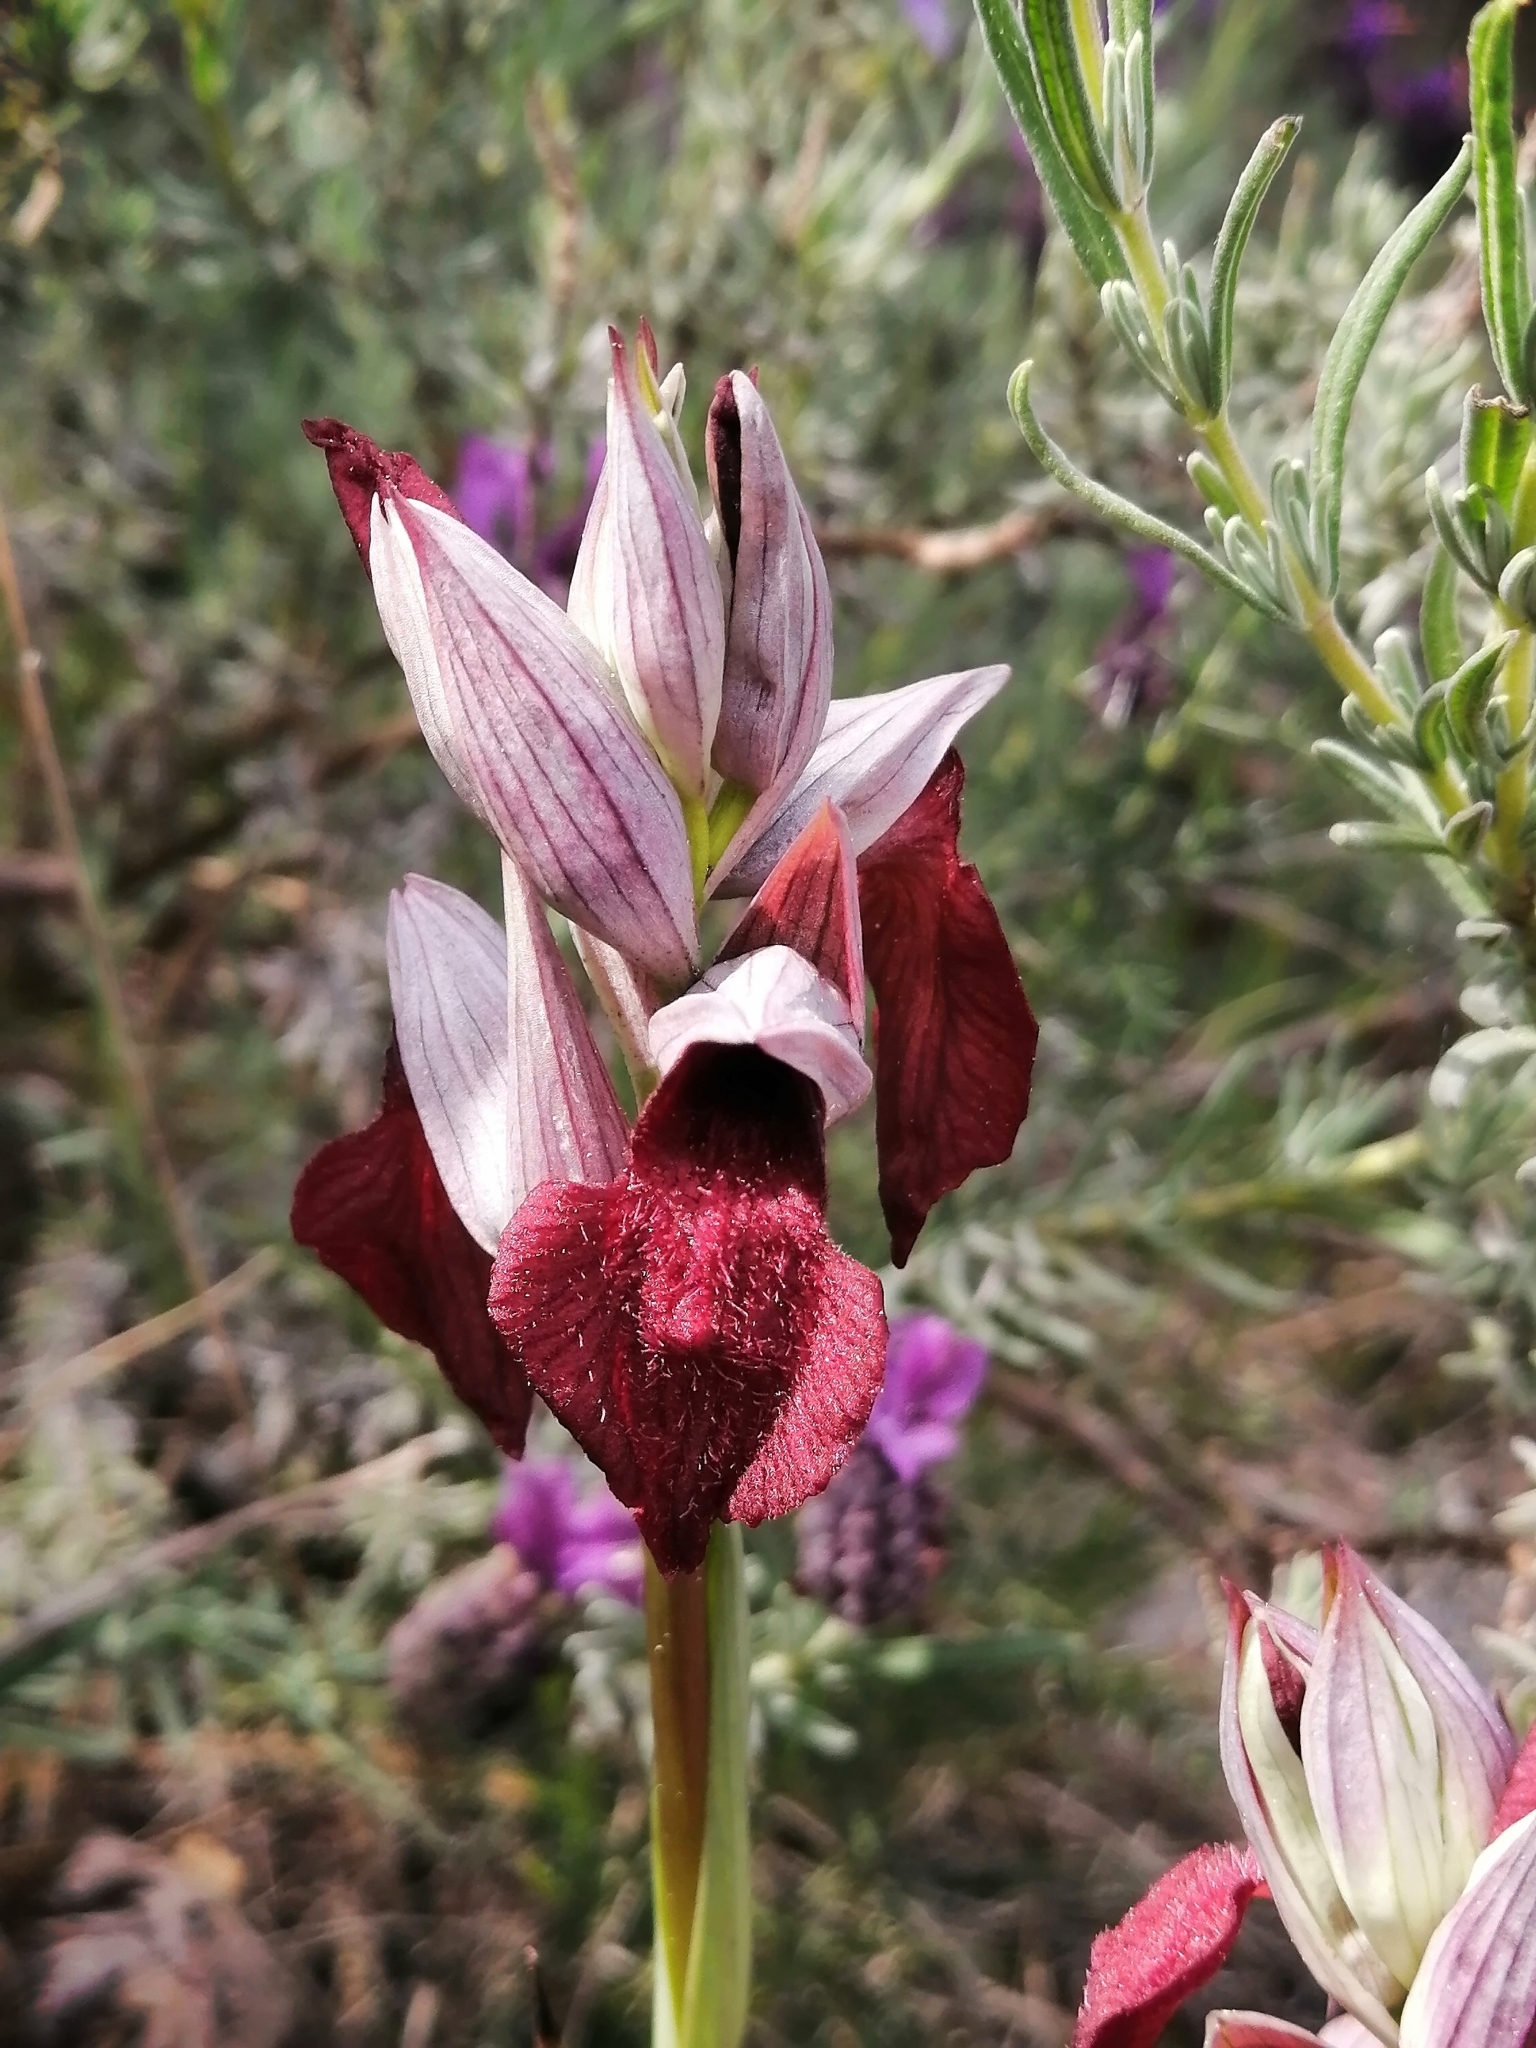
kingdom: Plantae
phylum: Tracheophyta
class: Liliopsida
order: Asparagales
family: Orchidaceae
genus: Serapias
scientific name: Serapias cordigera
